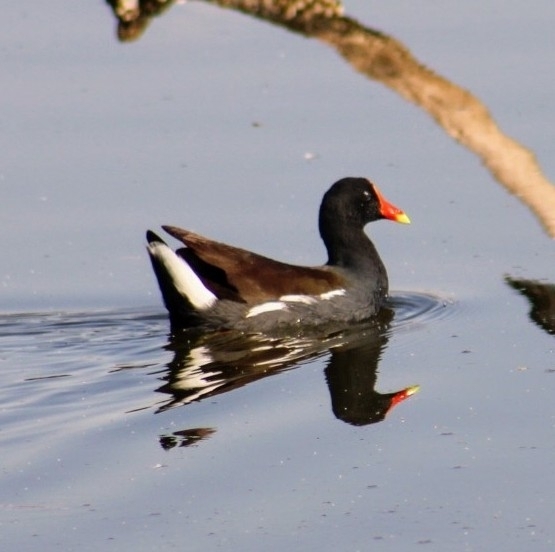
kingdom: Animalia
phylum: Chordata
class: Aves
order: Gruiformes
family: Rallidae
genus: Gallinula
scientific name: Gallinula chloropus
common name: Common moorhen
